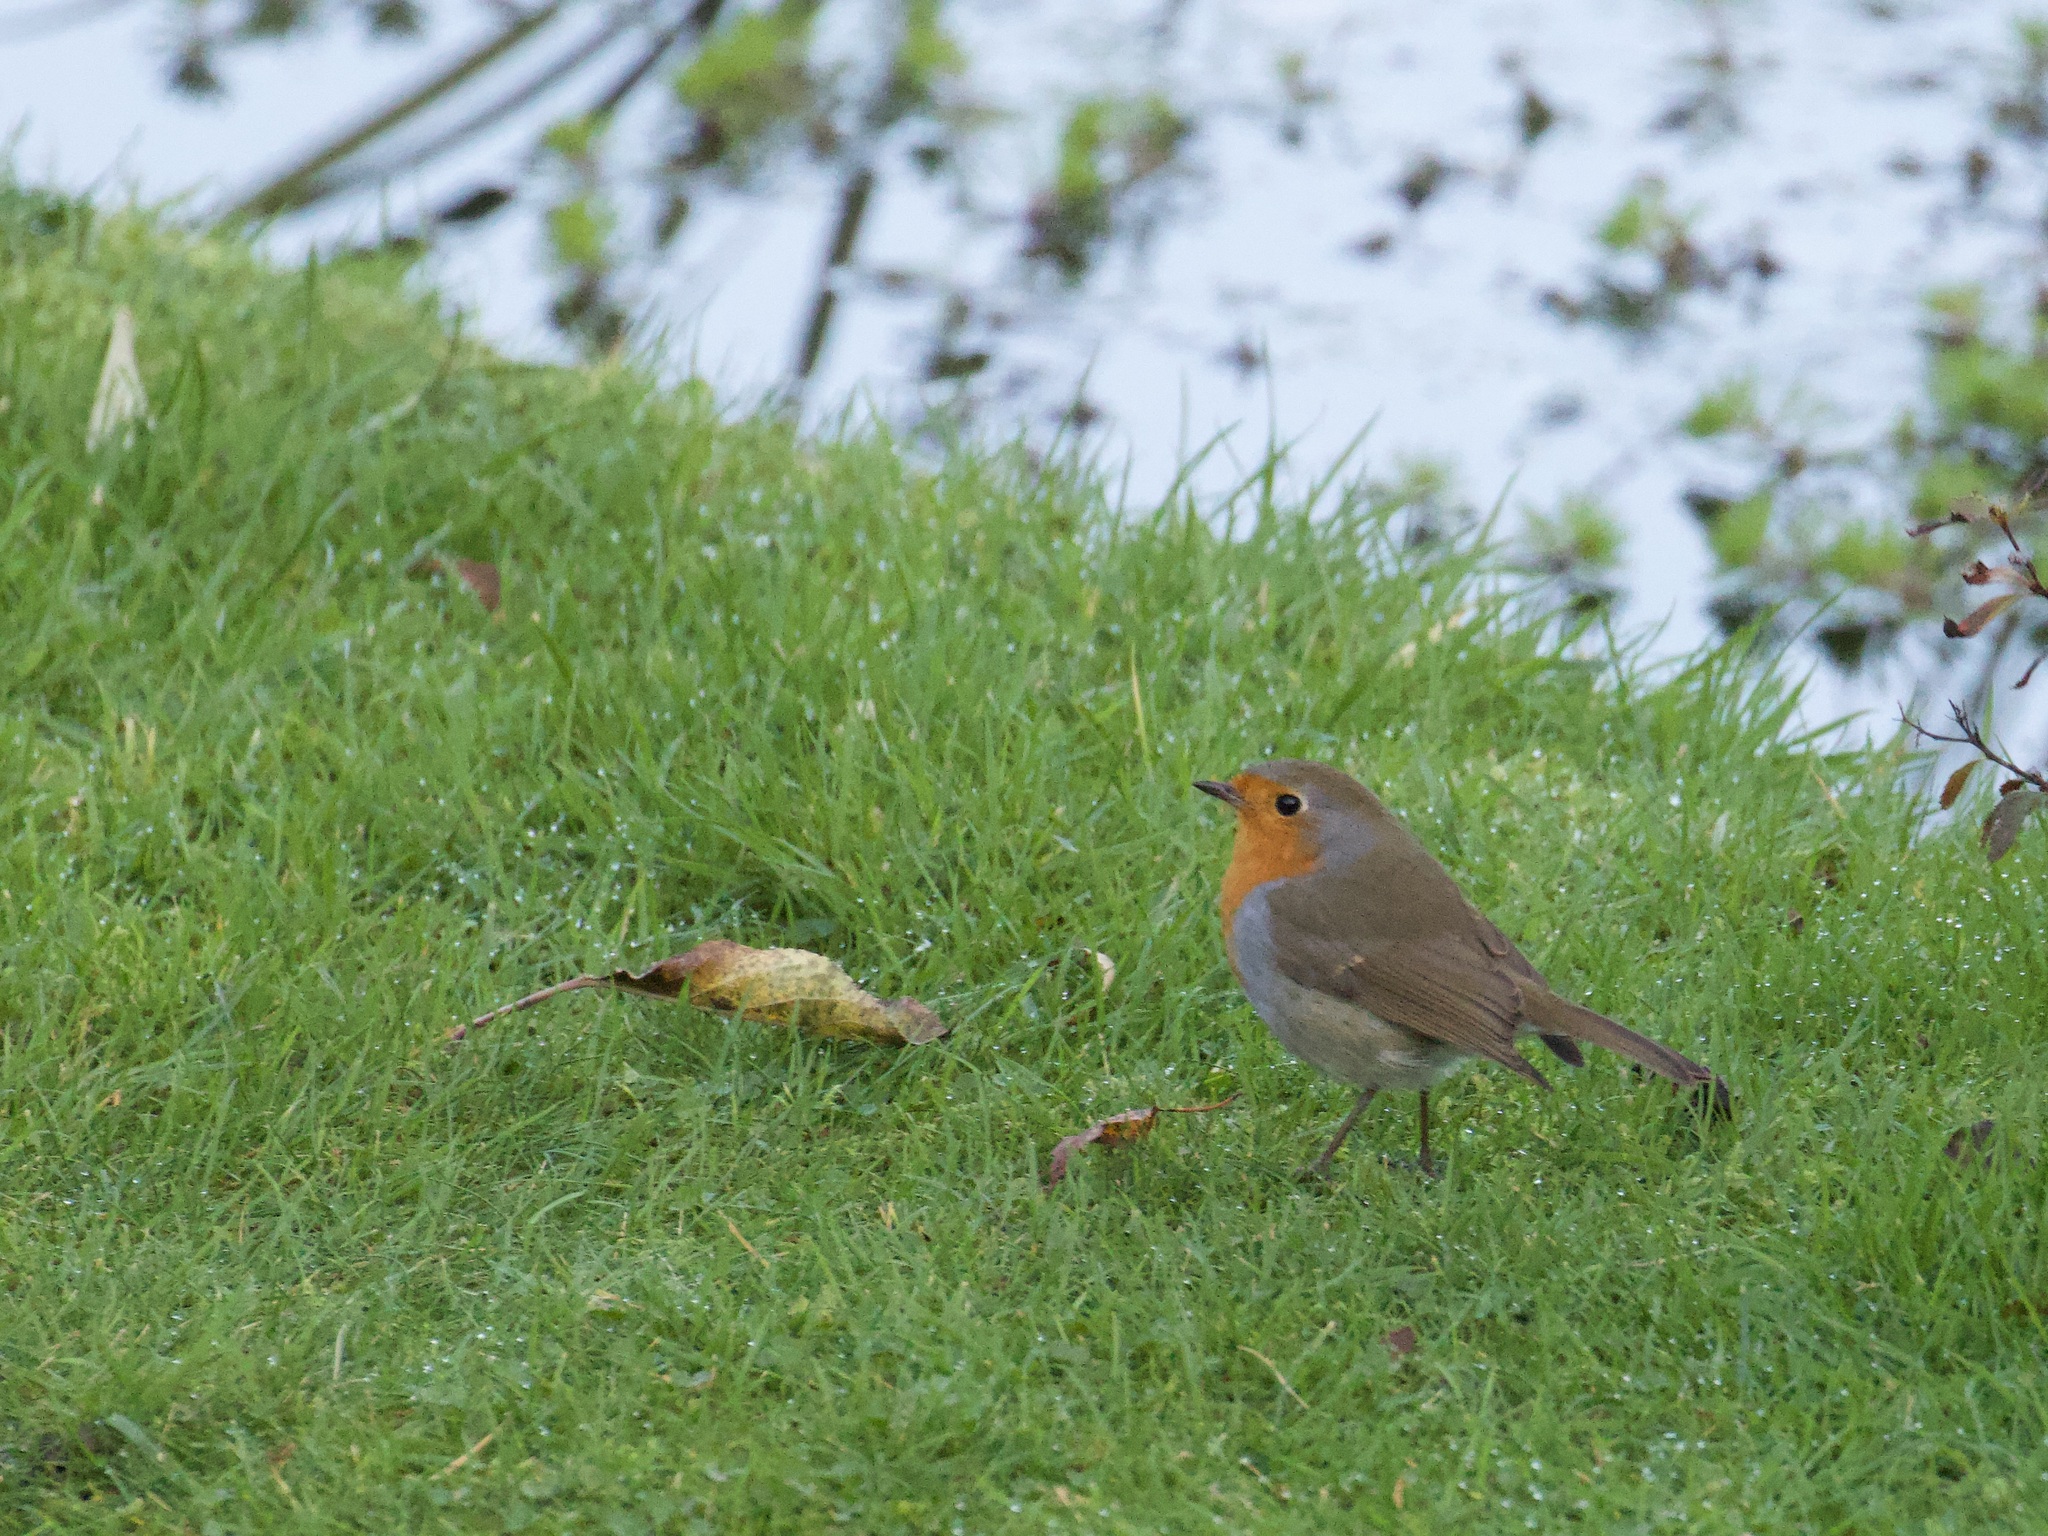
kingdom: Animalia
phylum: Chordata
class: Aves
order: Passeriformes
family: Muscicapidae
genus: Erithacus
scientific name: Erithacus rubecula
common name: European robin
